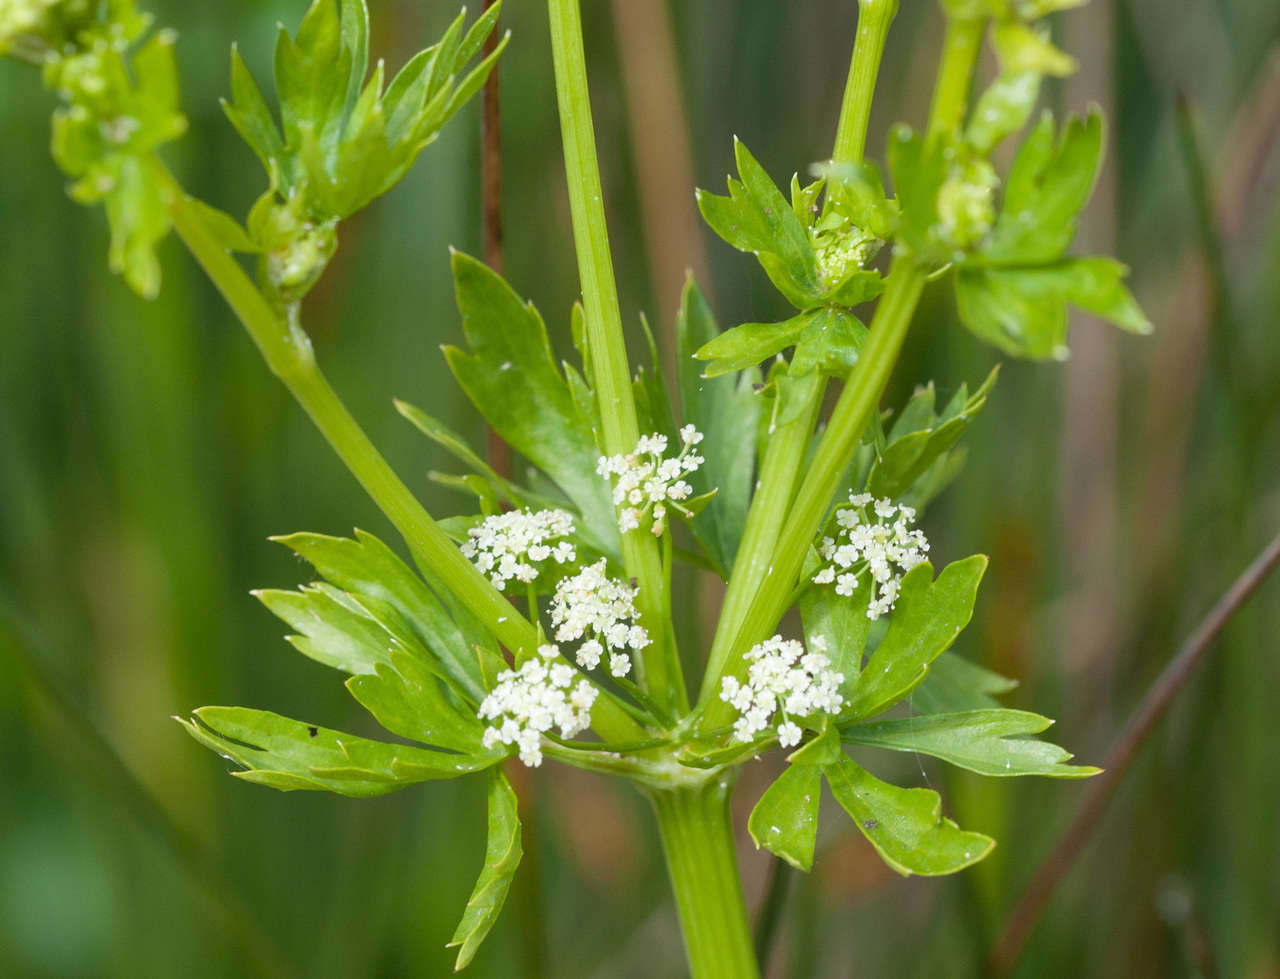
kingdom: Plantae
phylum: Tracheophyta
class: Magnoliopsida
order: Apiales
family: Apiaceae
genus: Apium
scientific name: Apium graveolens
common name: Wild celery
